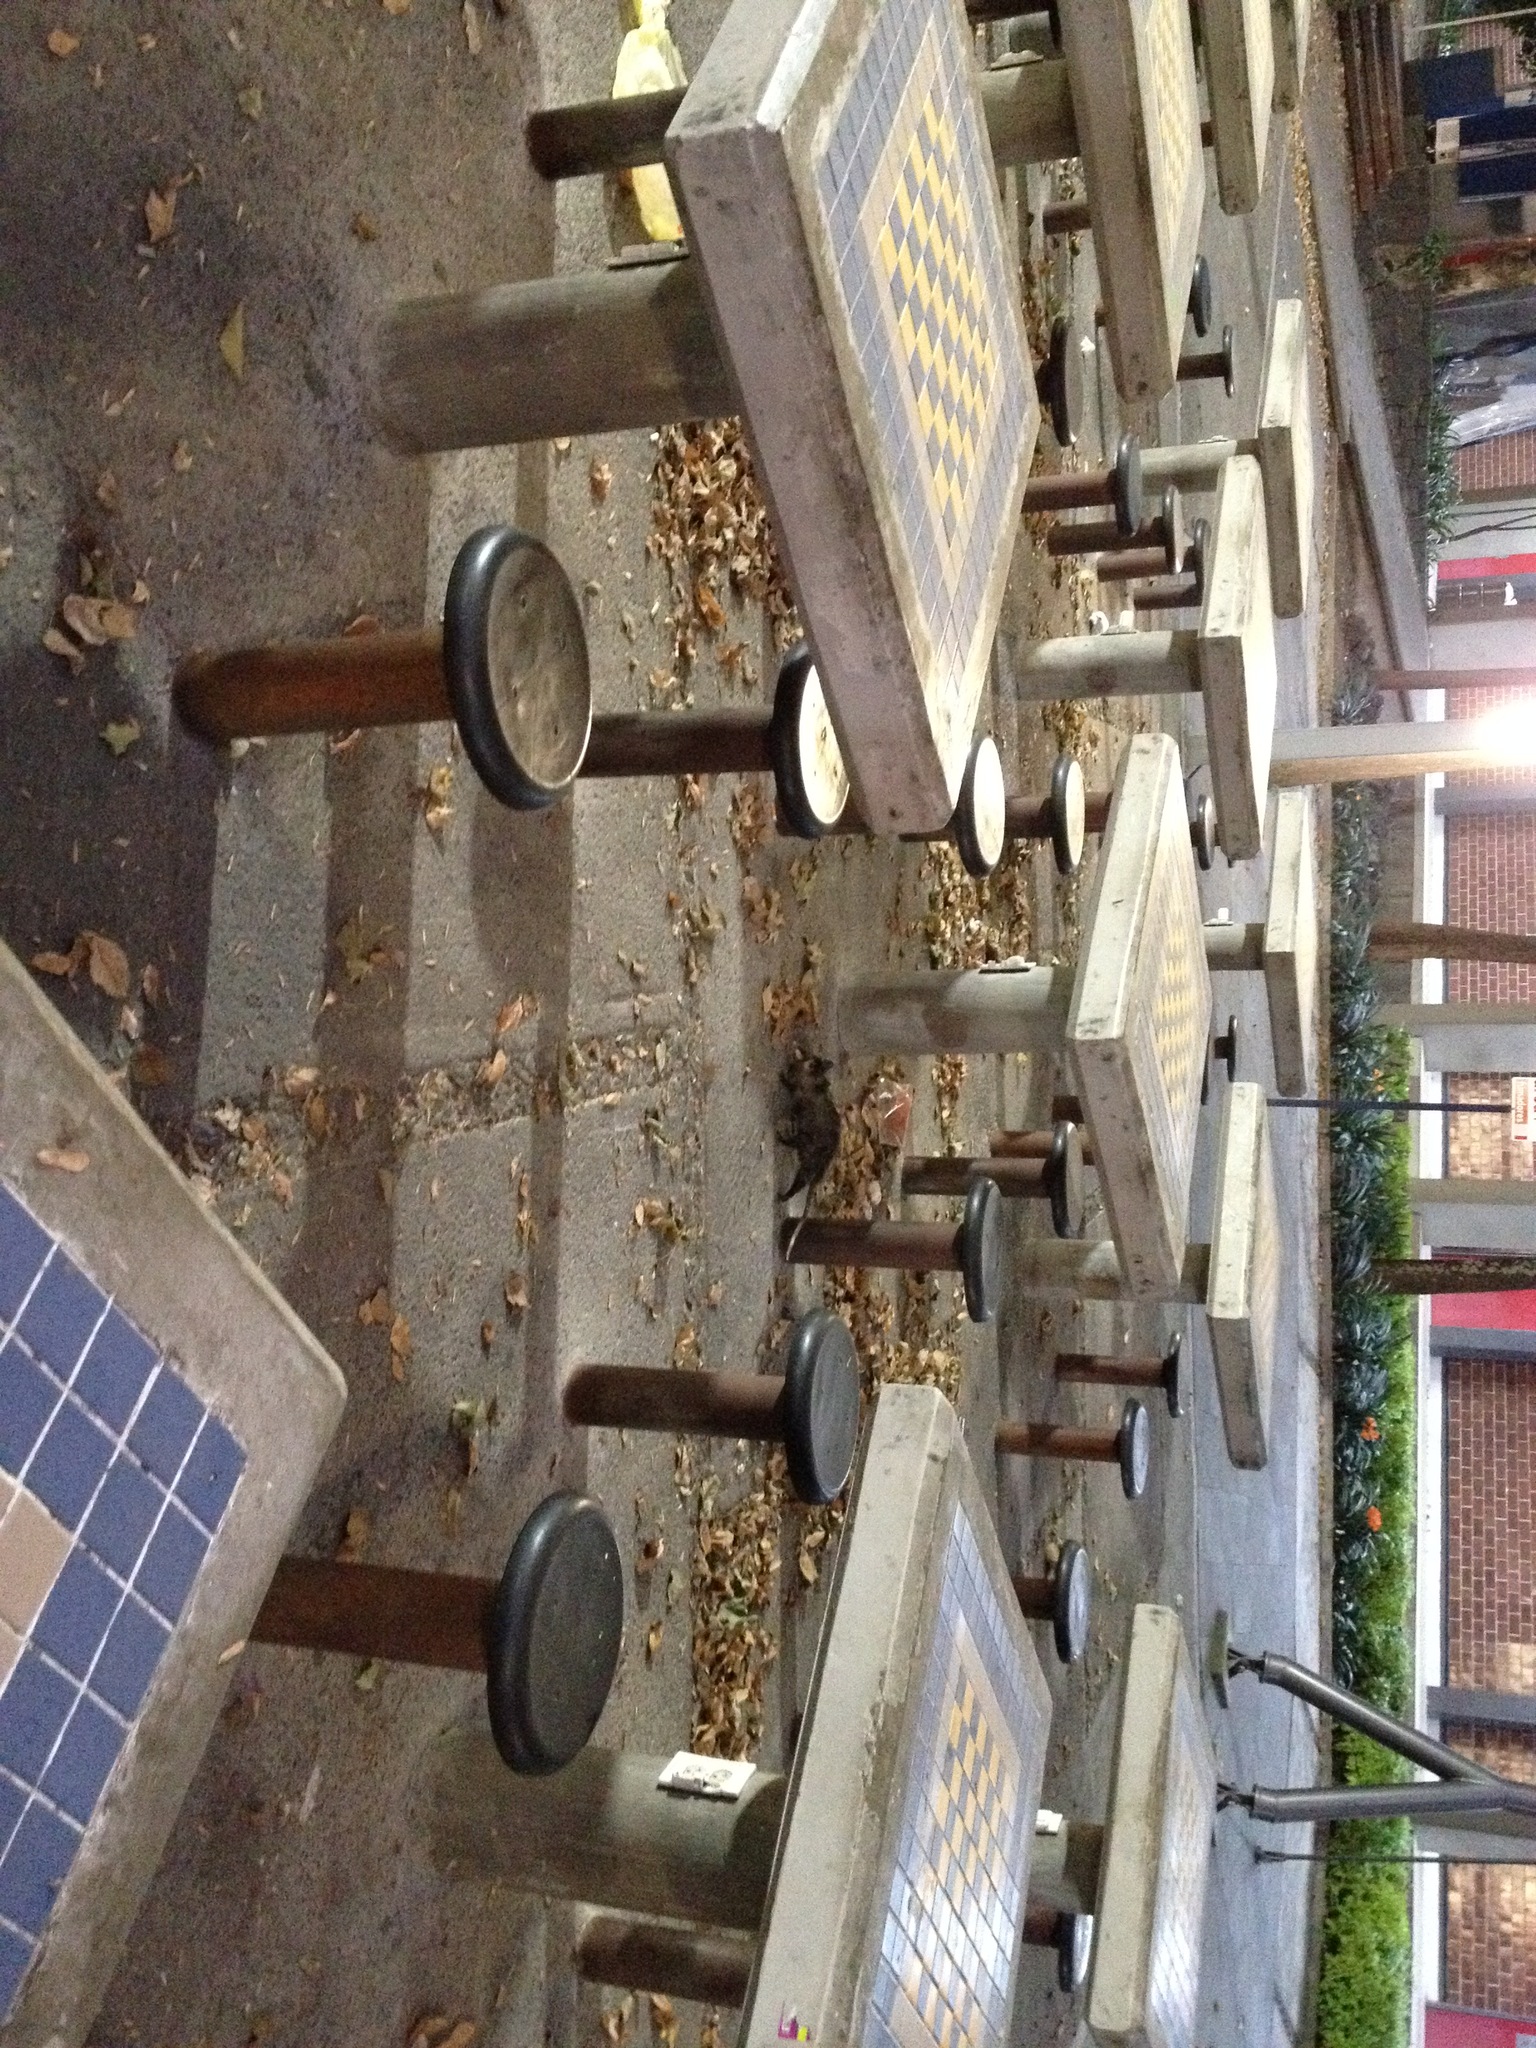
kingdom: Animalia
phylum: Chordata
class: Mammalia
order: Didelphimorphia
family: Didelphidae
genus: Didelphis
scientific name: Didelphis virginiana
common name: Virginia opossum
